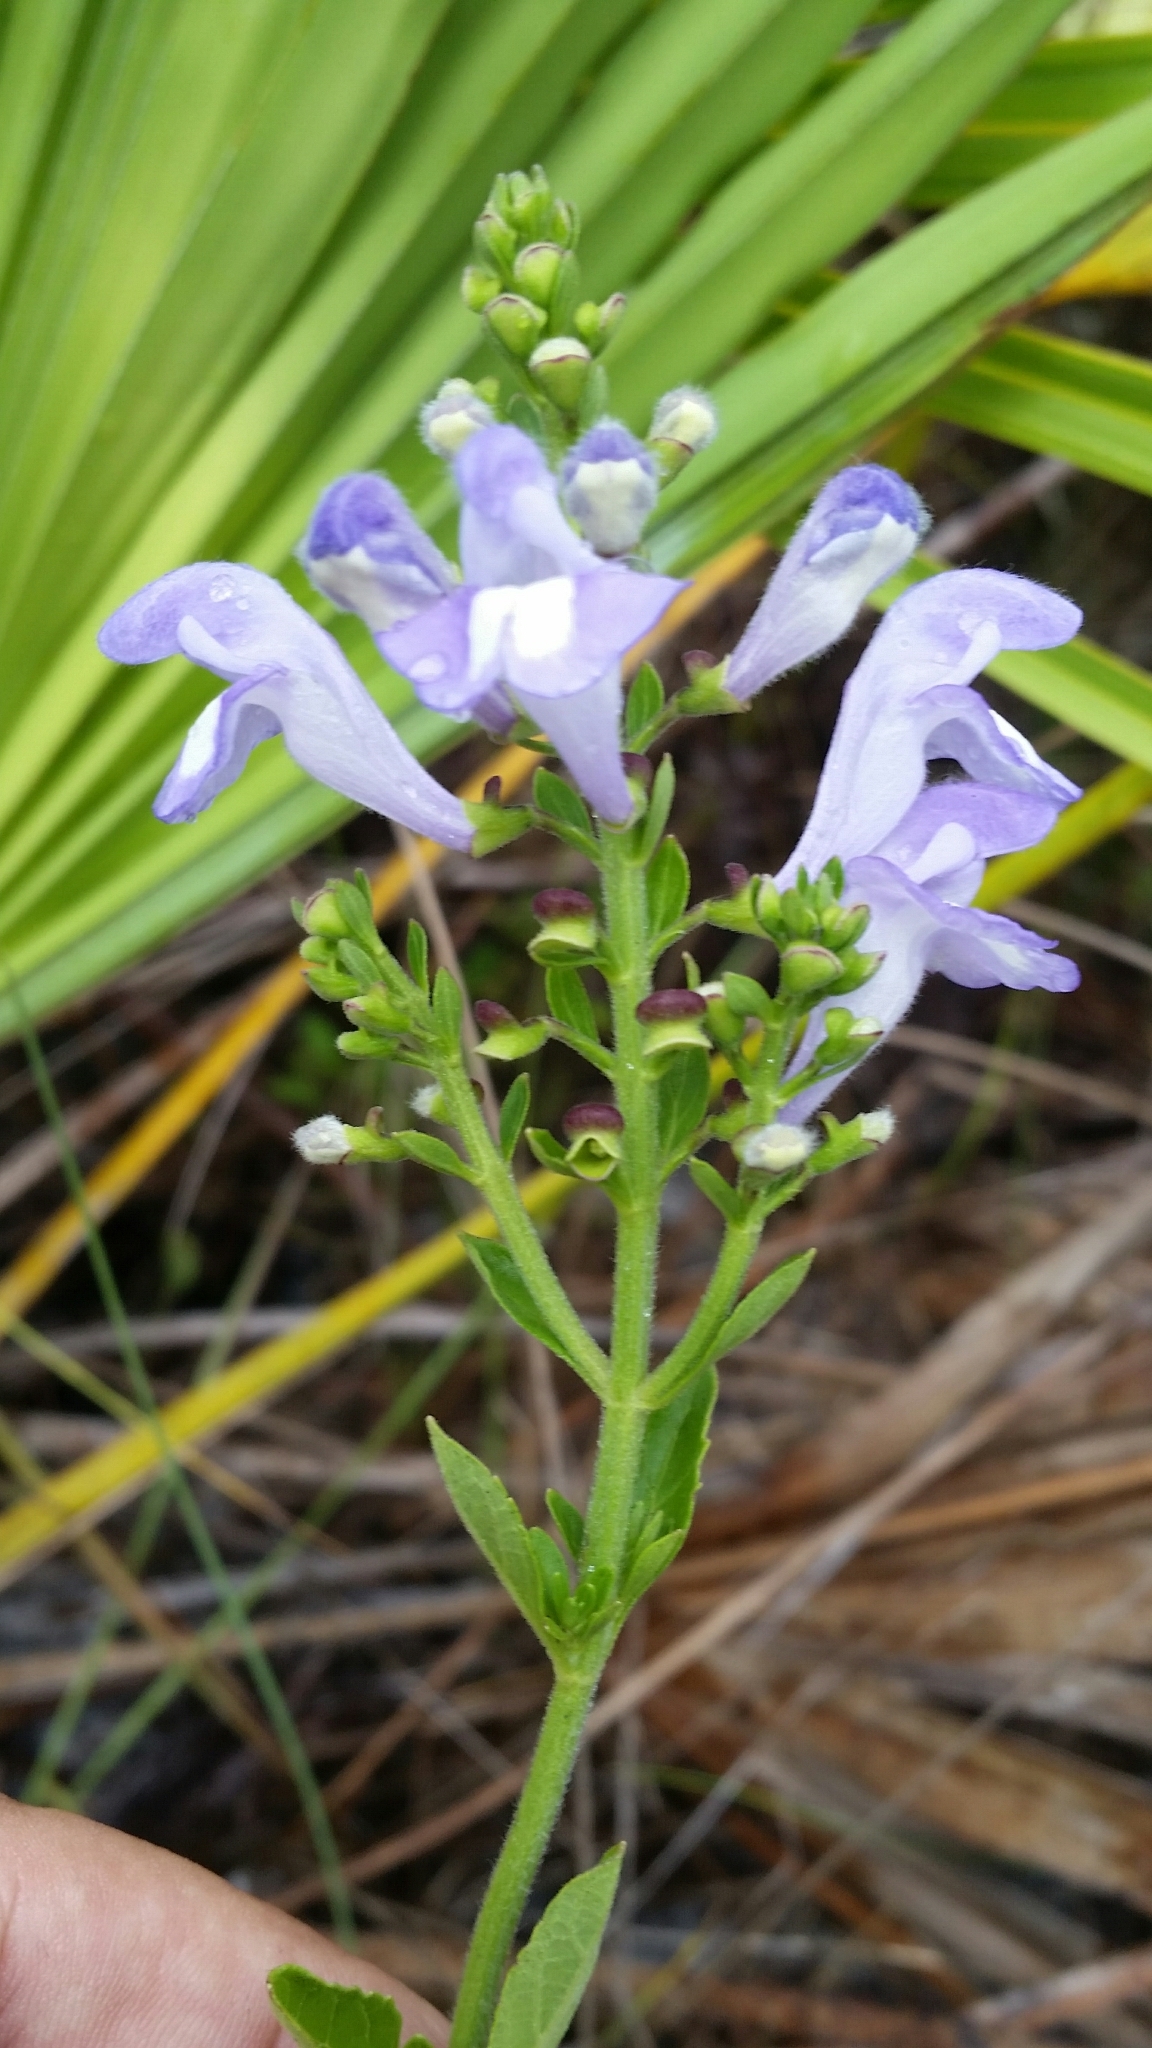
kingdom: Plantae
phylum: Tracheophyta
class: Magnoliopsida
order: Lamiales
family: Lamiaceae
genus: Scutellaria
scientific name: Scutellaria arenicola
